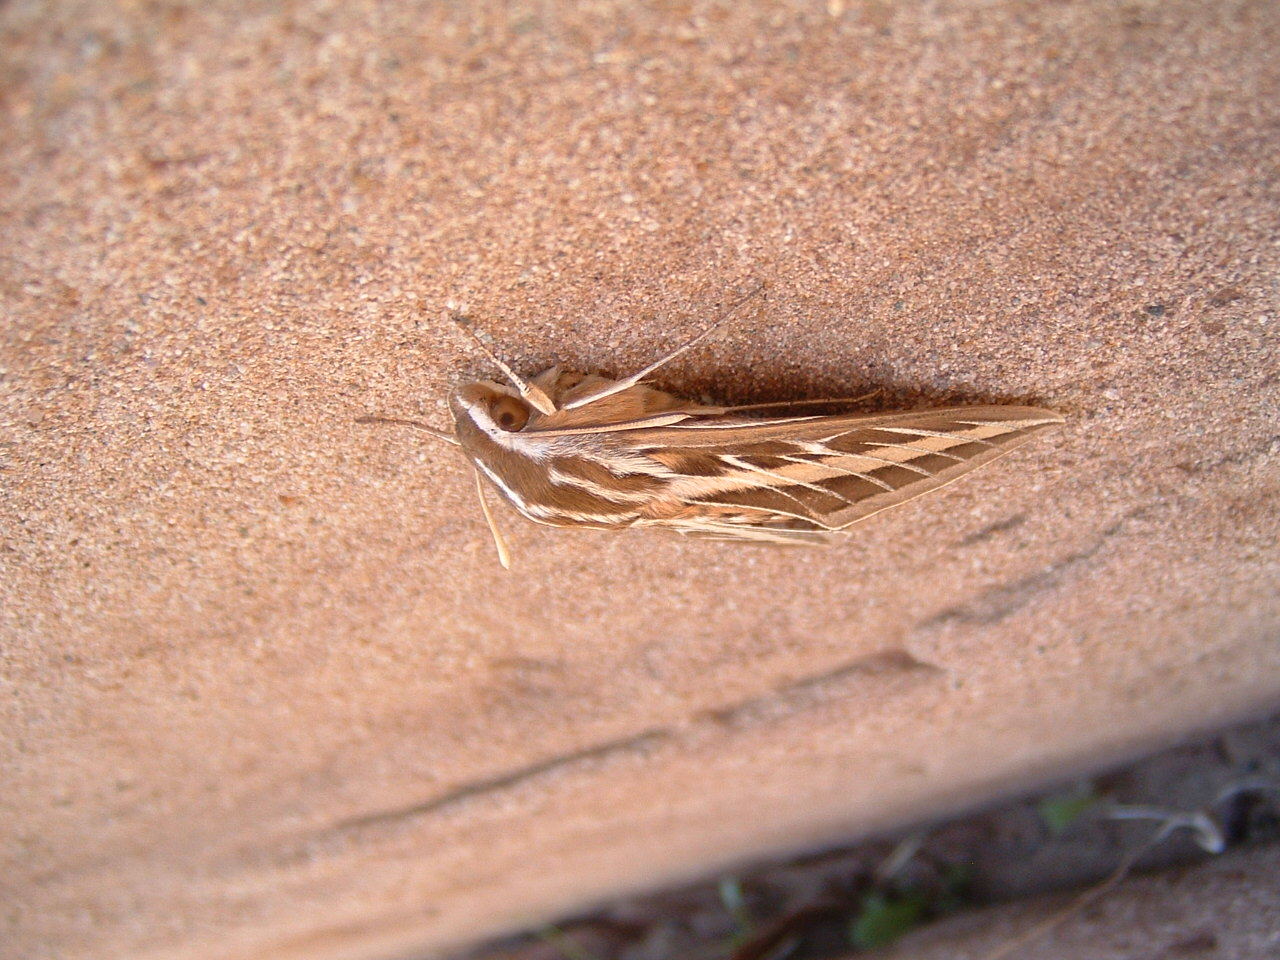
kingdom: Animalia
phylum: Arthropoda
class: Insecta
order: Lepidoptera
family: Sphingidae
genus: Hyles
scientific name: Hyles lineata
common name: White-lined sphinx
